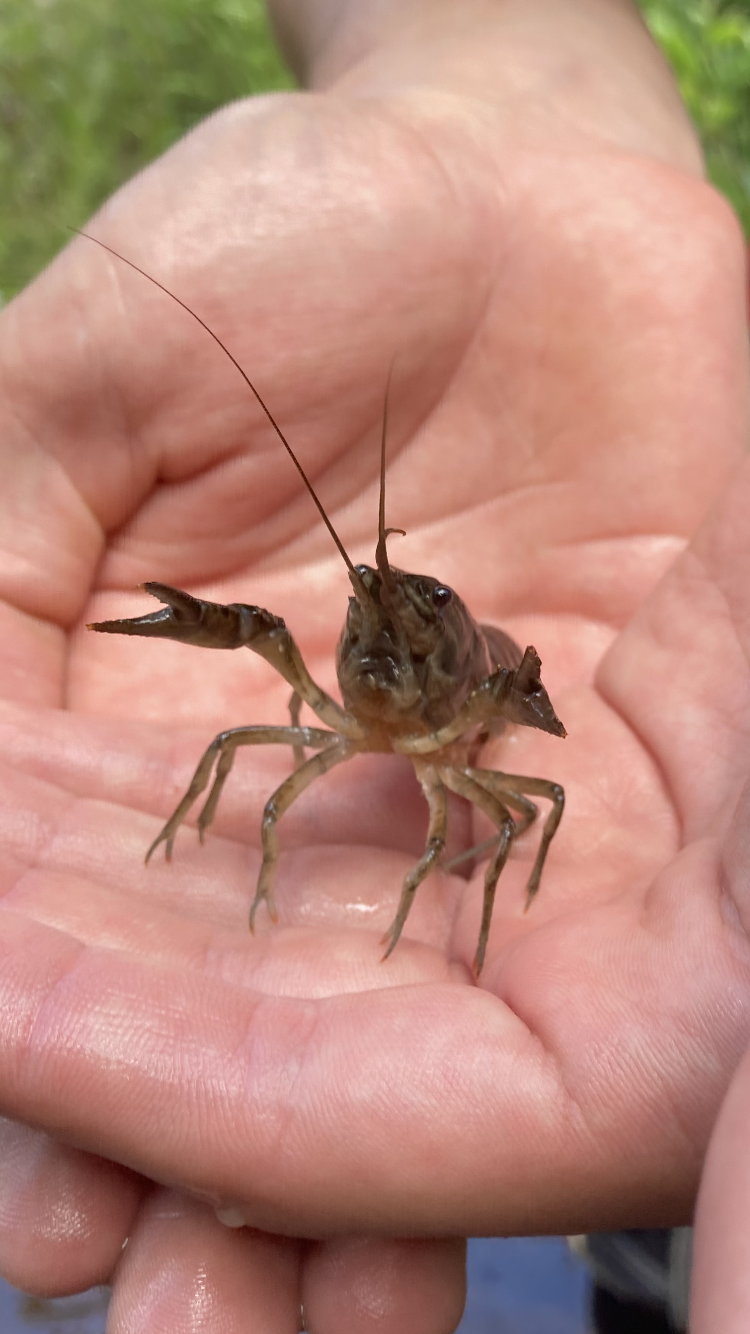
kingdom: Animalia
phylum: Arthropoda
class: Malacostraca
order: Decapoda
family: Cambaridae
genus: Faxonius
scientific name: Faxonius immunis
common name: Calico crayfish
